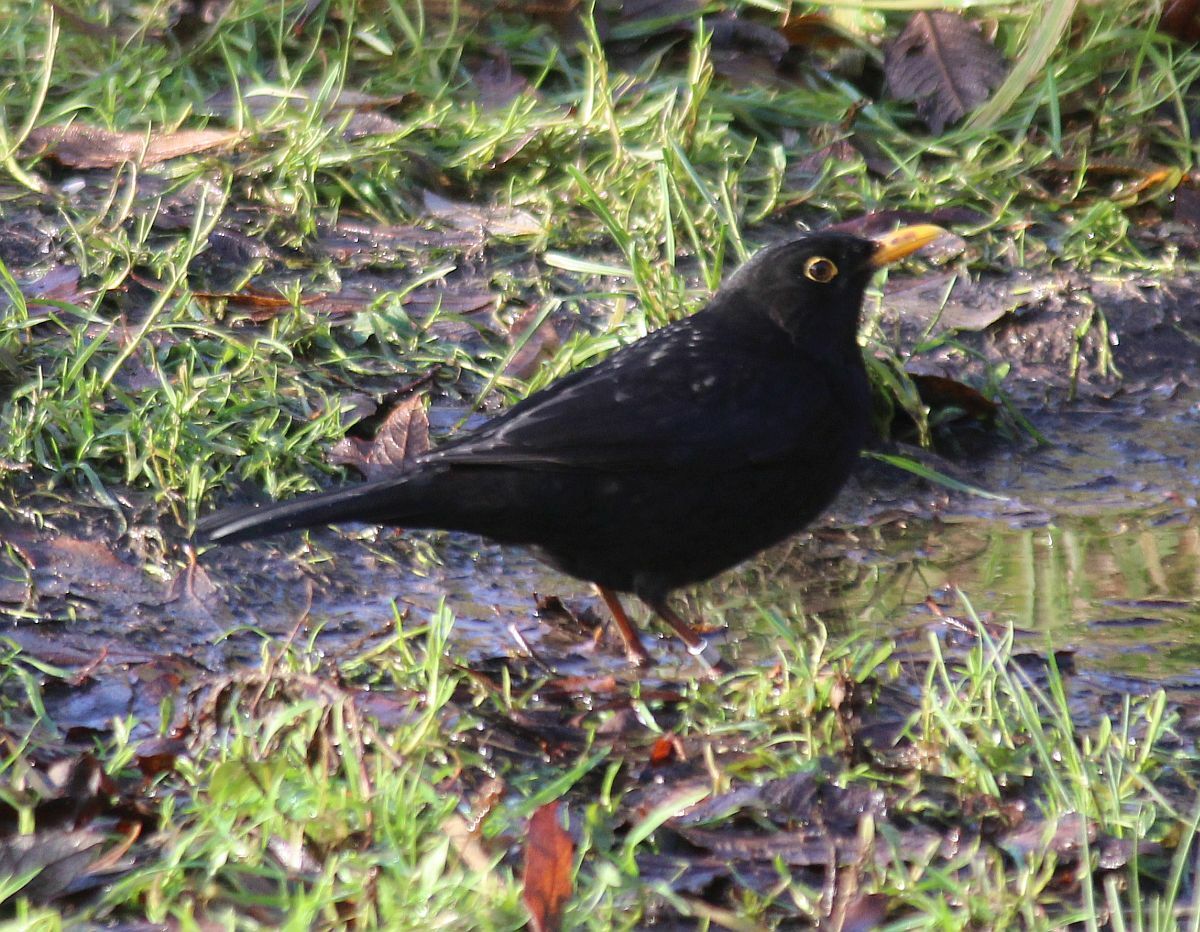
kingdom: Animalia
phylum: Chordata
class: Aves
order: Passeriformes
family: Turdidae
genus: Turdus
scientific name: Turdus merula
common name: Common blackbird
